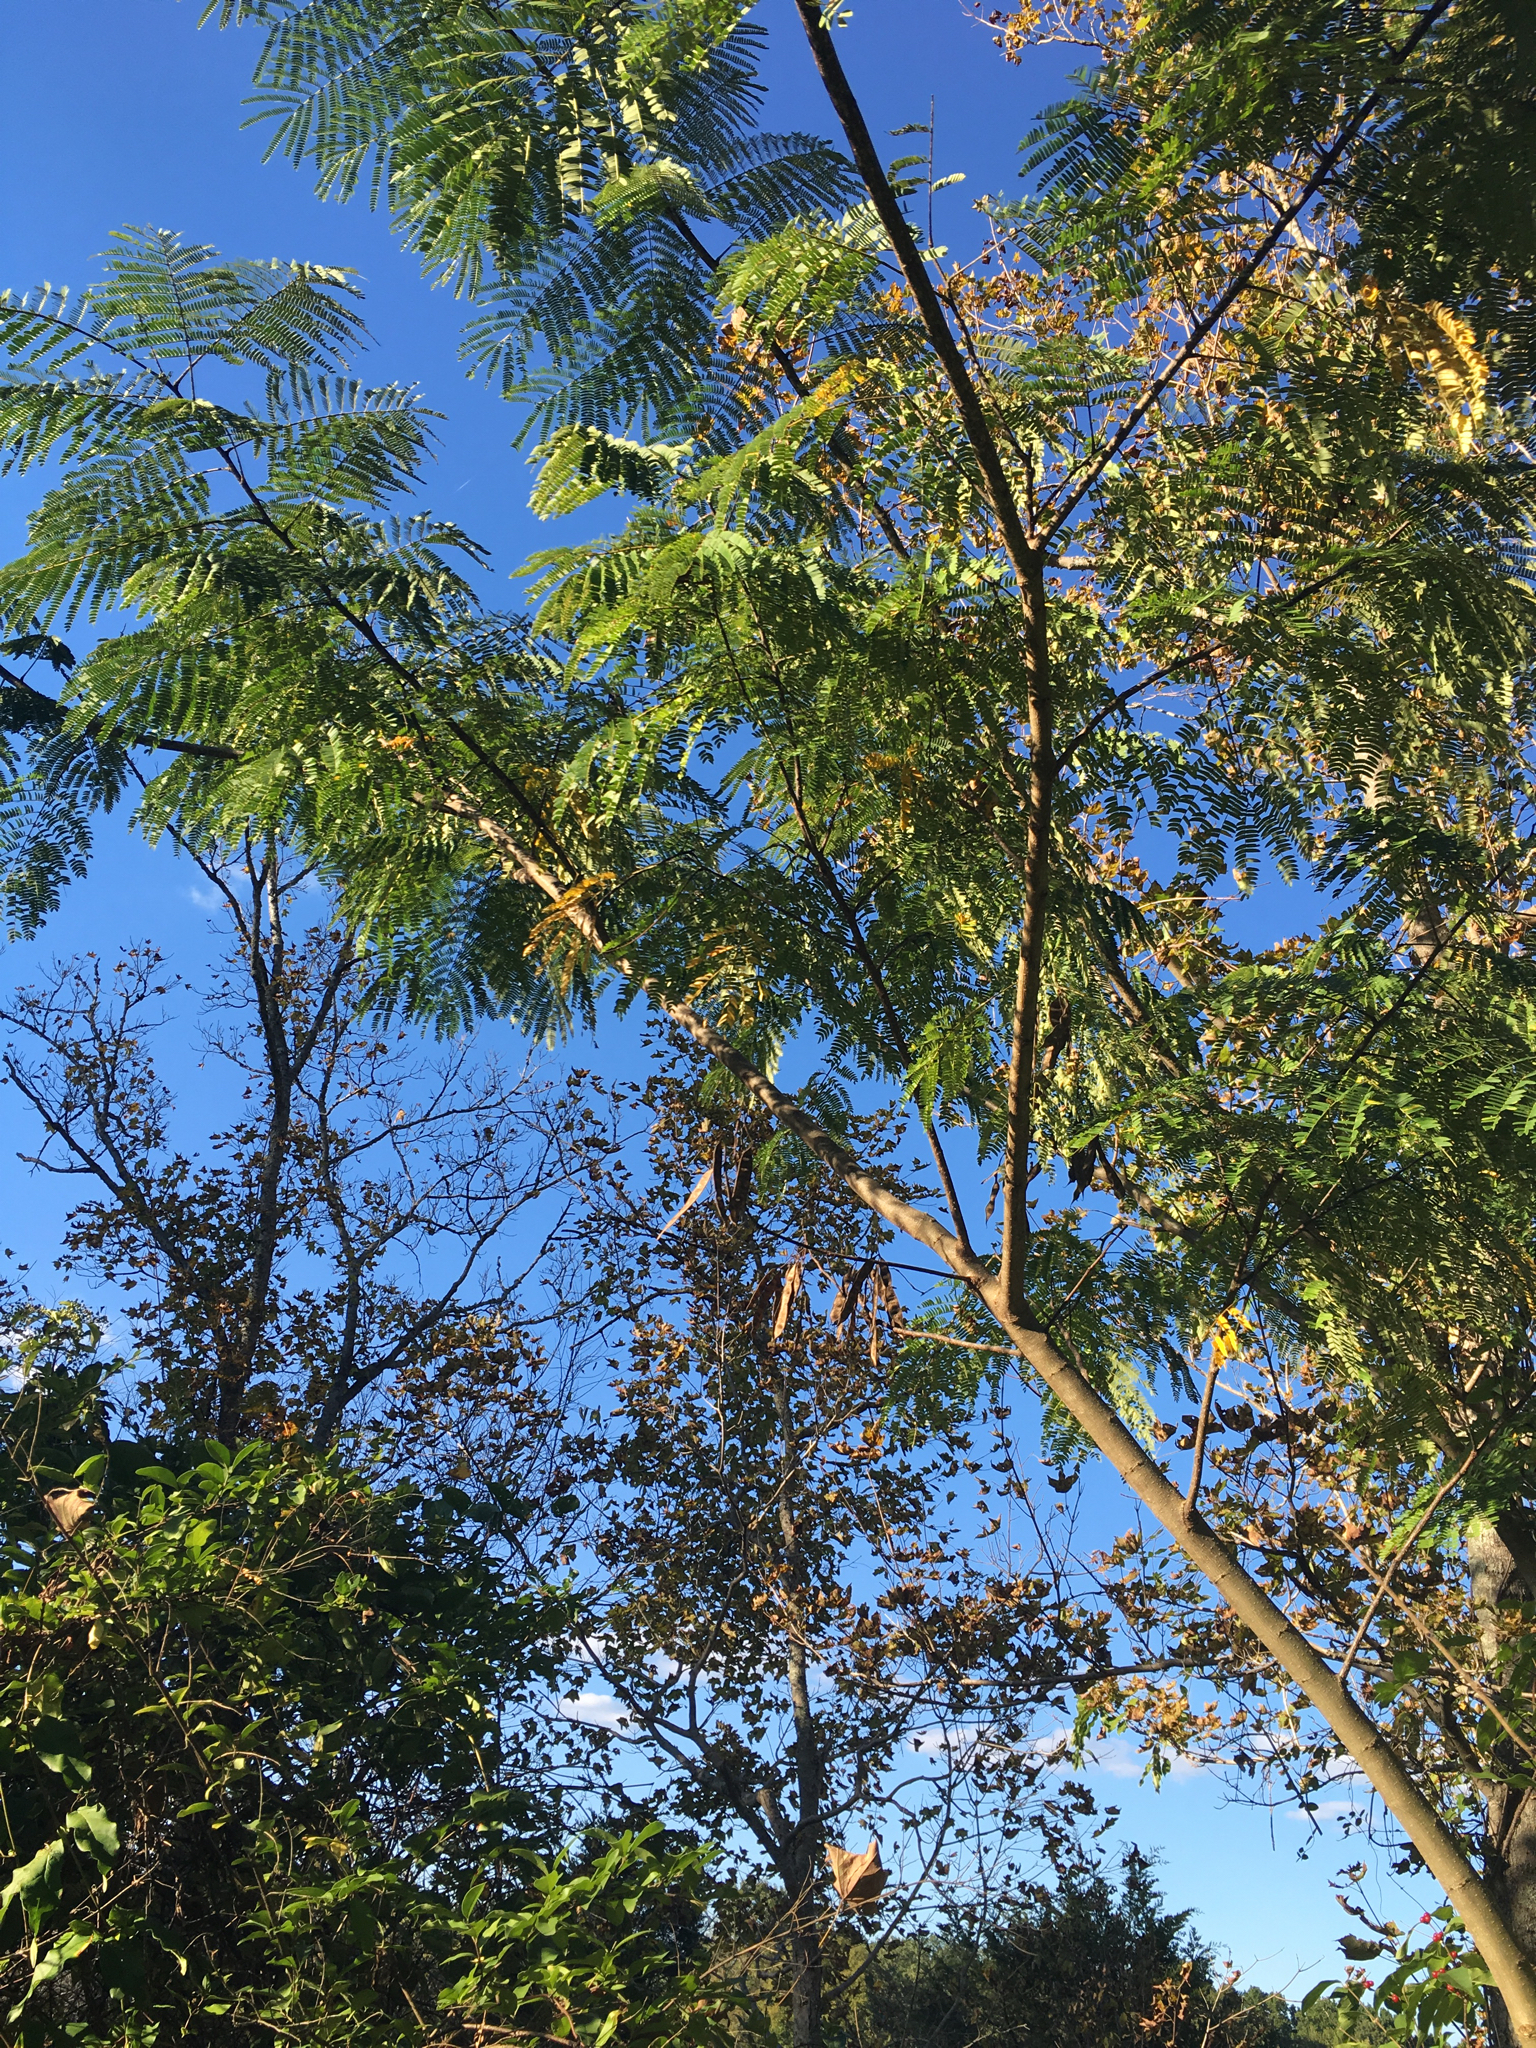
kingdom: Plantae
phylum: Tracheophyta
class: Magnoliopsida
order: Fabales
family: Fabaceae
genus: Albizia
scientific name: Albizia julibrissin
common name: Silktree
